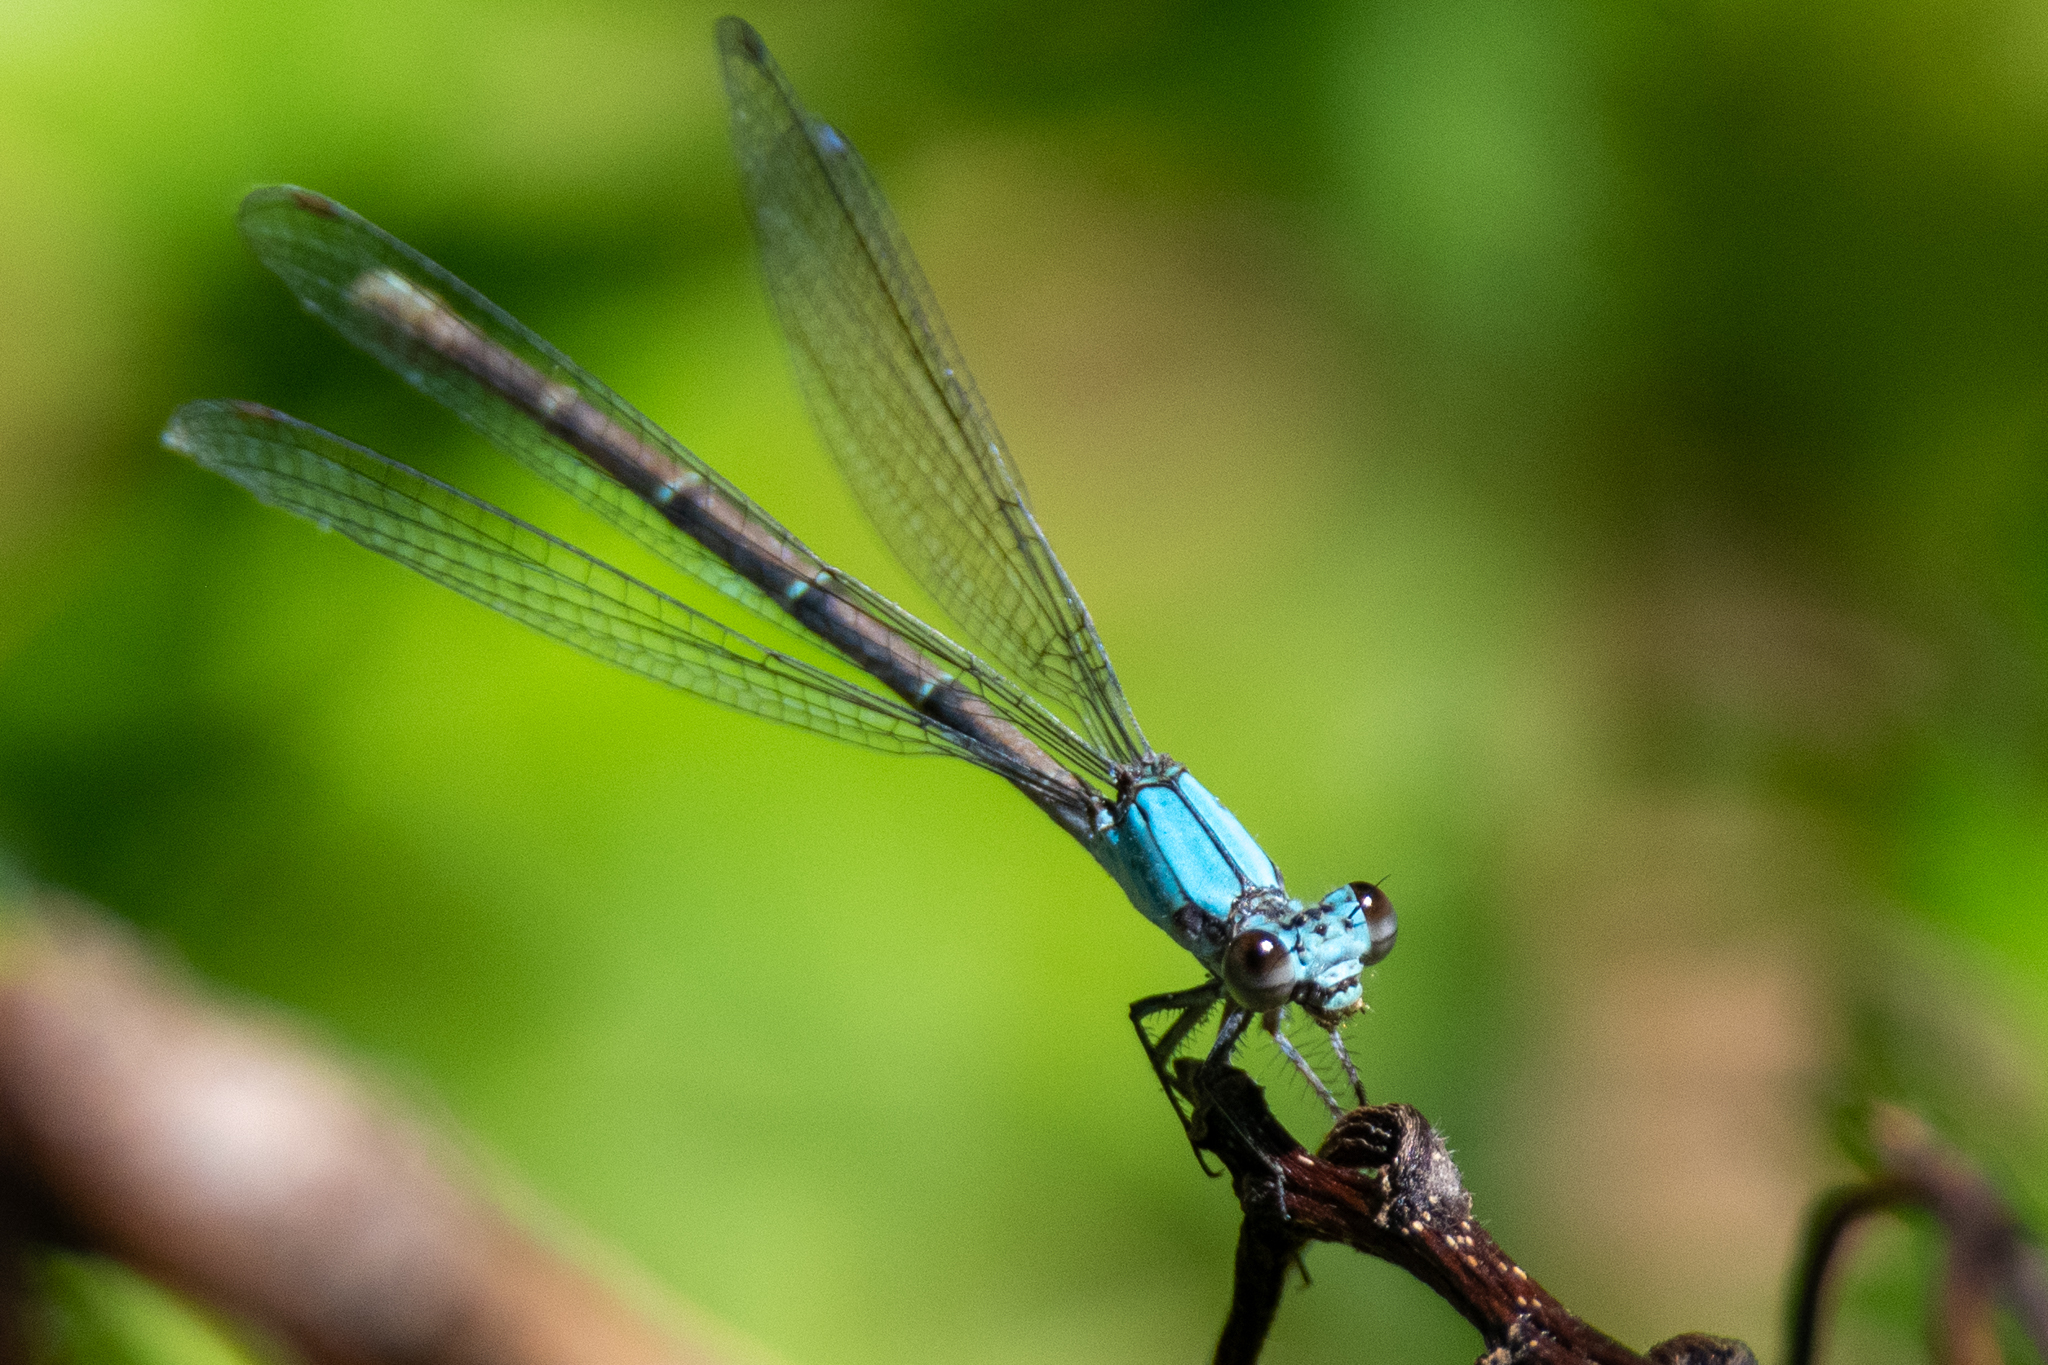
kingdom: Animalia
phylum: Arthropoda
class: Insecta
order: Odonata
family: Coenagrionidae
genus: Argia
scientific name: Argia moesta
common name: Powdered dancer
